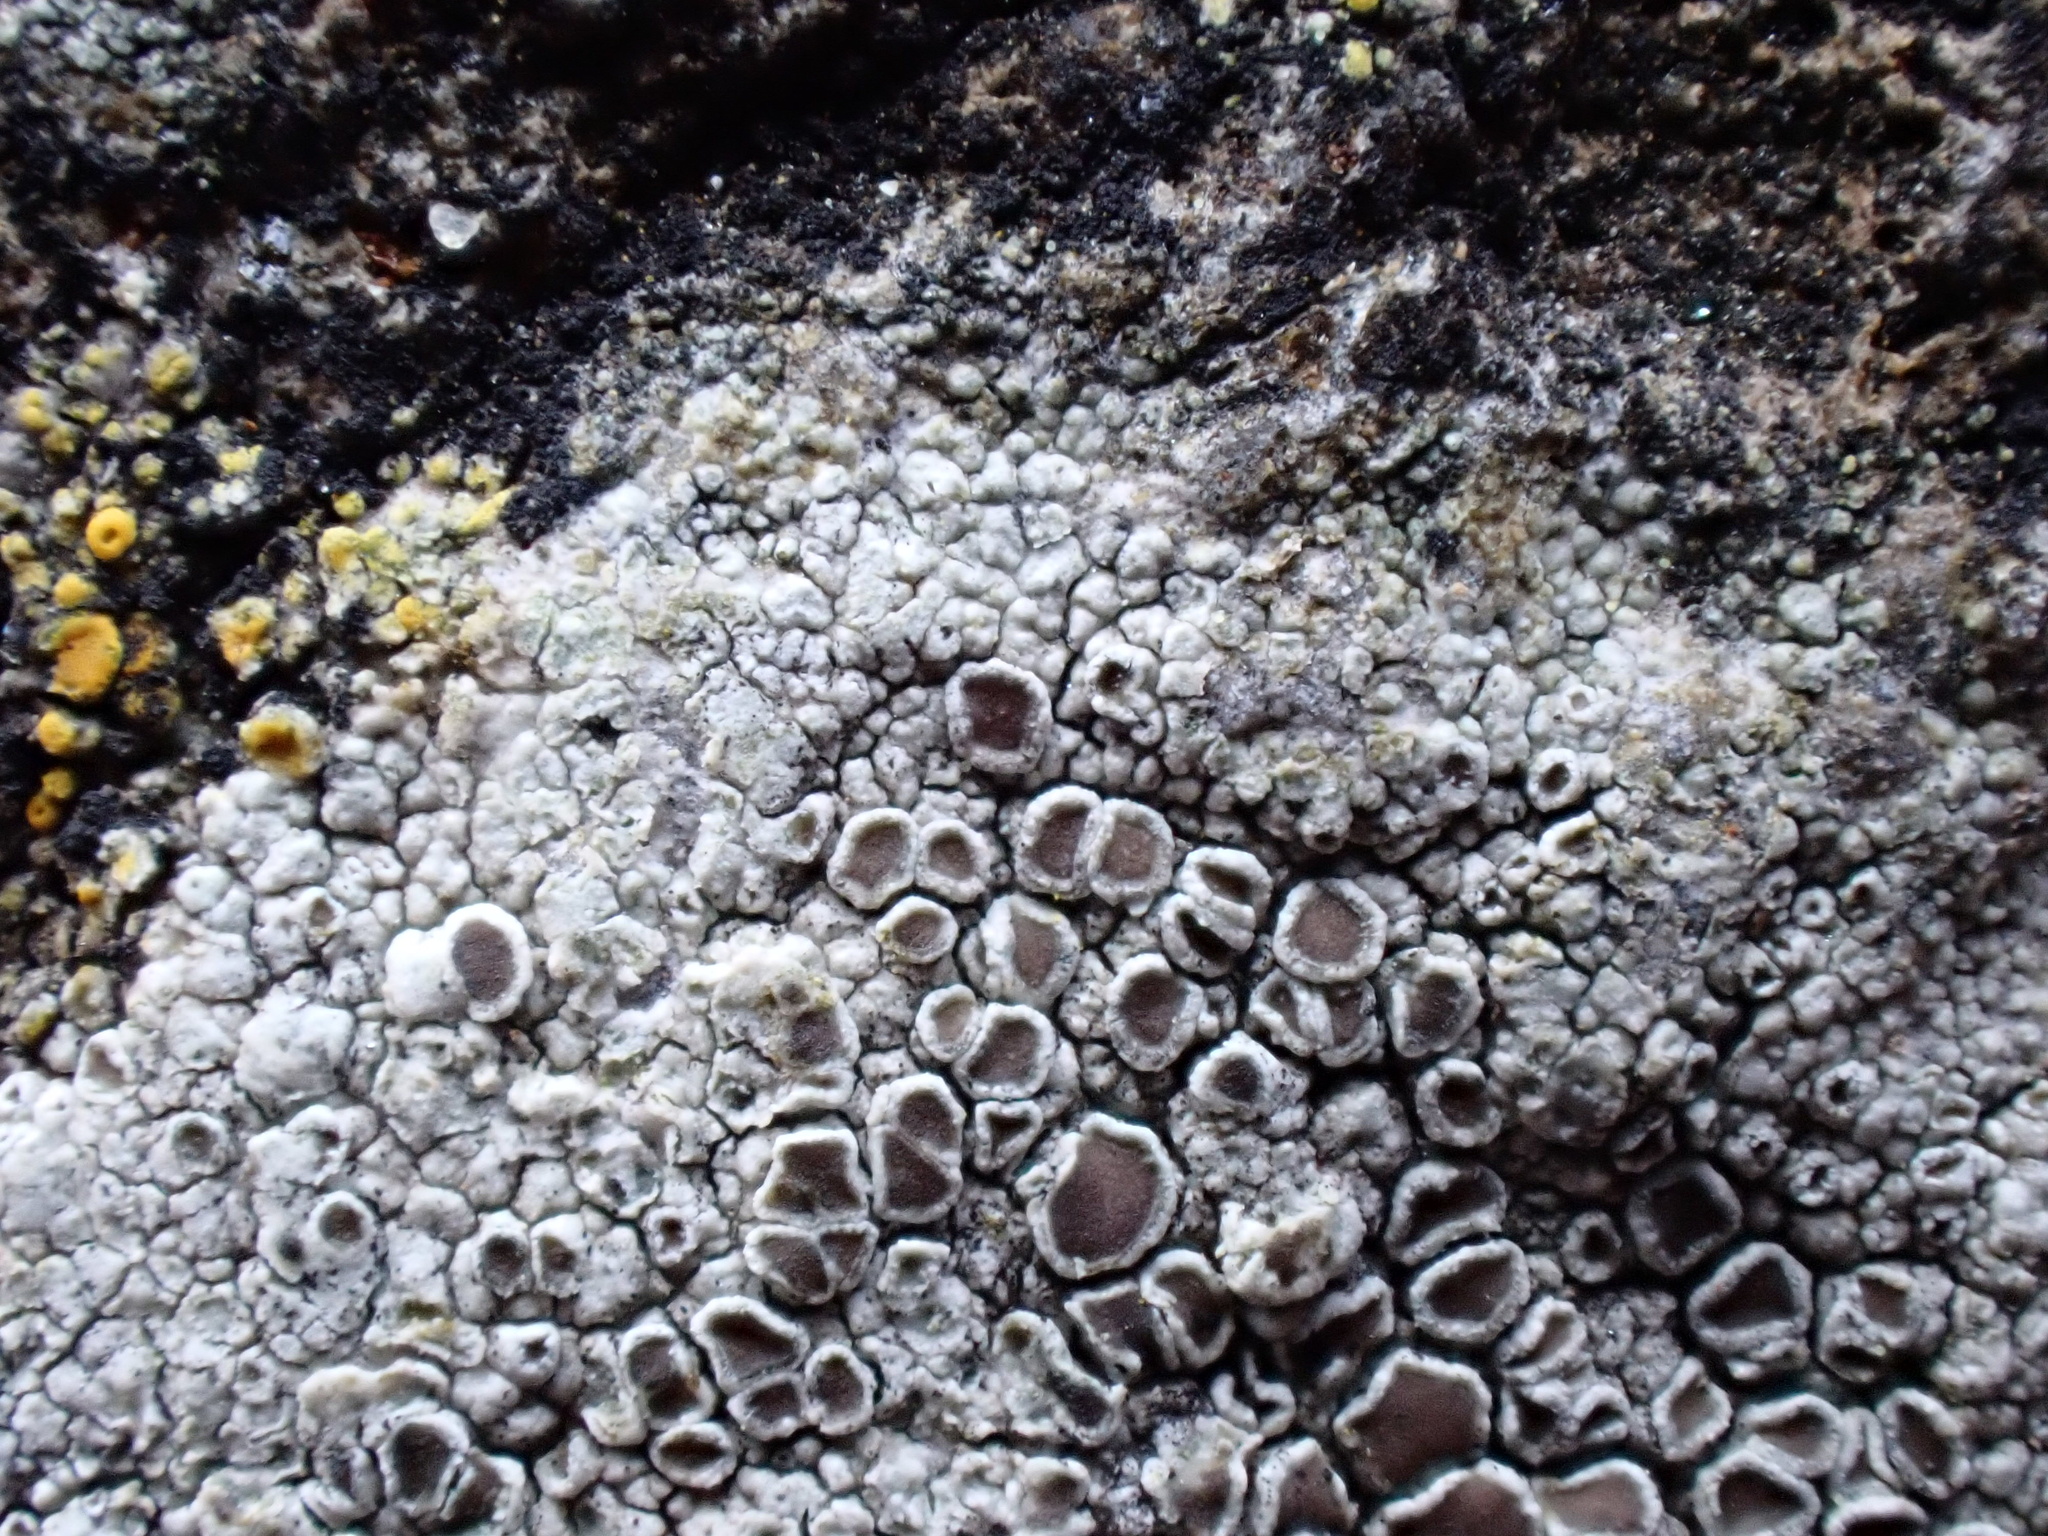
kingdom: Fungi
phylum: Ascomycota
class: Lecanoromycetes
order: Lecanorales
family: Lecanoraceae
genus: Lecanora
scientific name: Lecanora campestris
